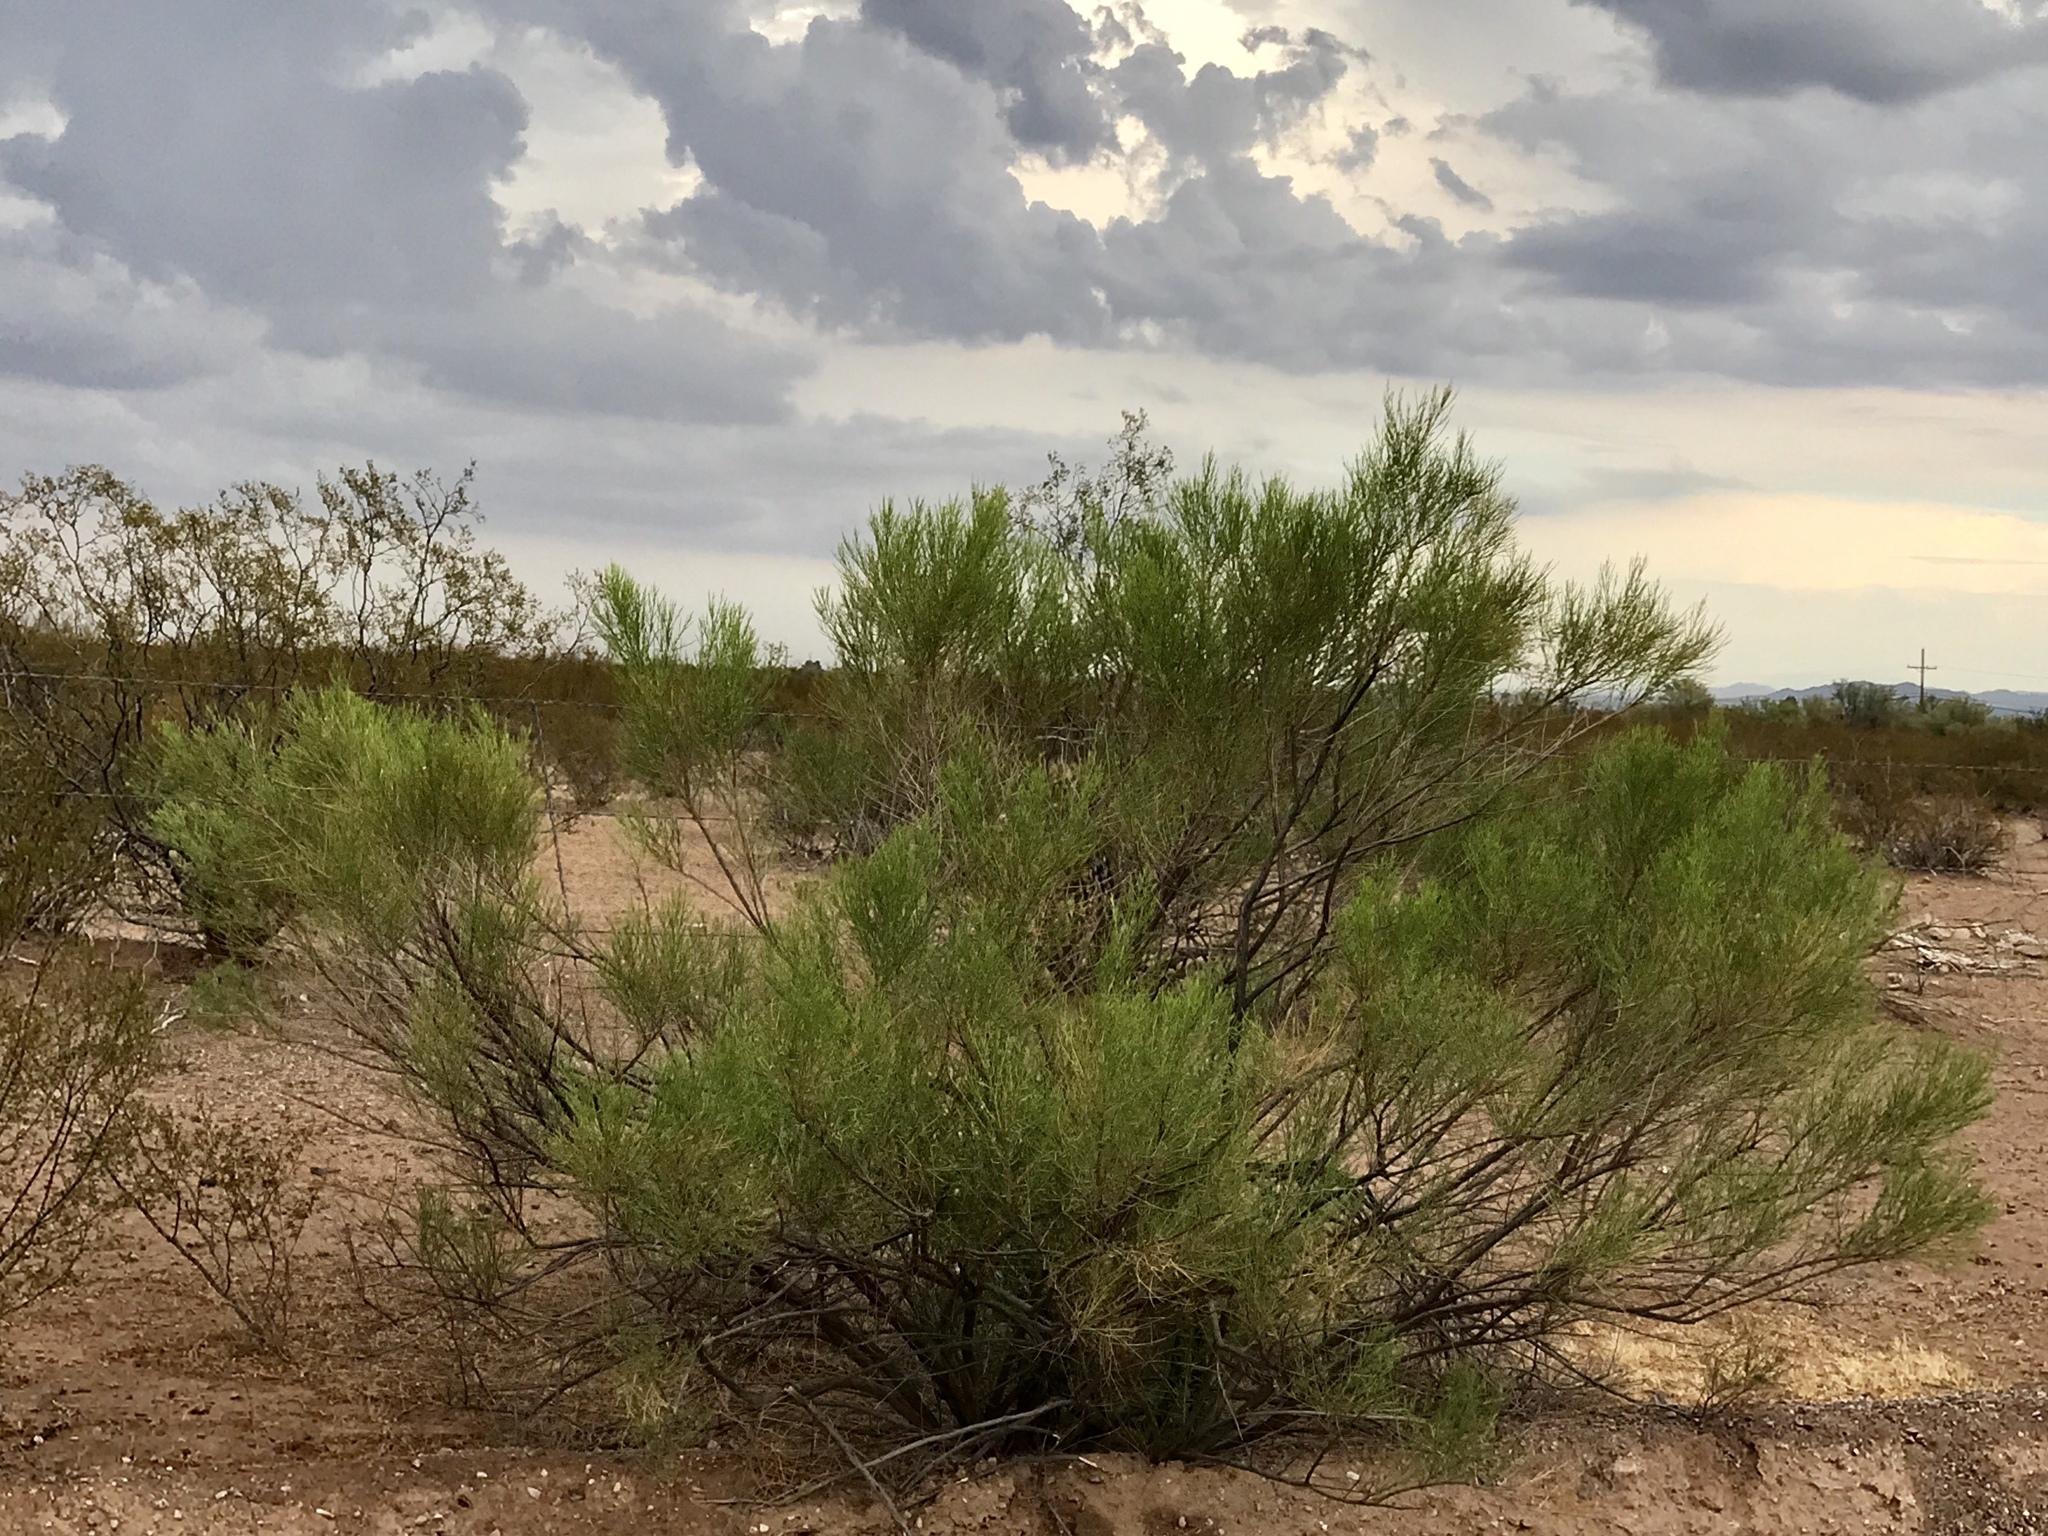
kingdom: Plantae
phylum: Tracheophyta
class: Magnoliopsida
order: Asterales
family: Asteraceae
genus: Baccharis
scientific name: Baccharis sarothroides
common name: Desert-broom
